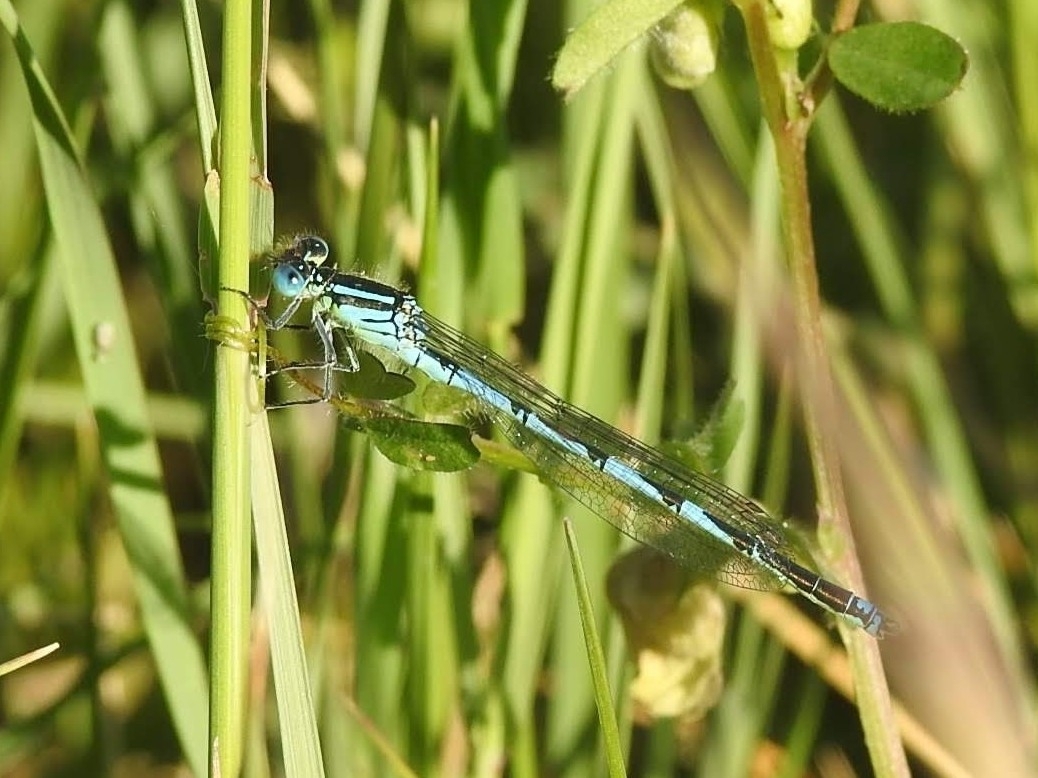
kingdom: Animalia
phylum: Arthropoda
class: Insecta
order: Odonata
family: Coenagrionidae
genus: Erythromma
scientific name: Erythromma lindenii
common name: Blue-eye
